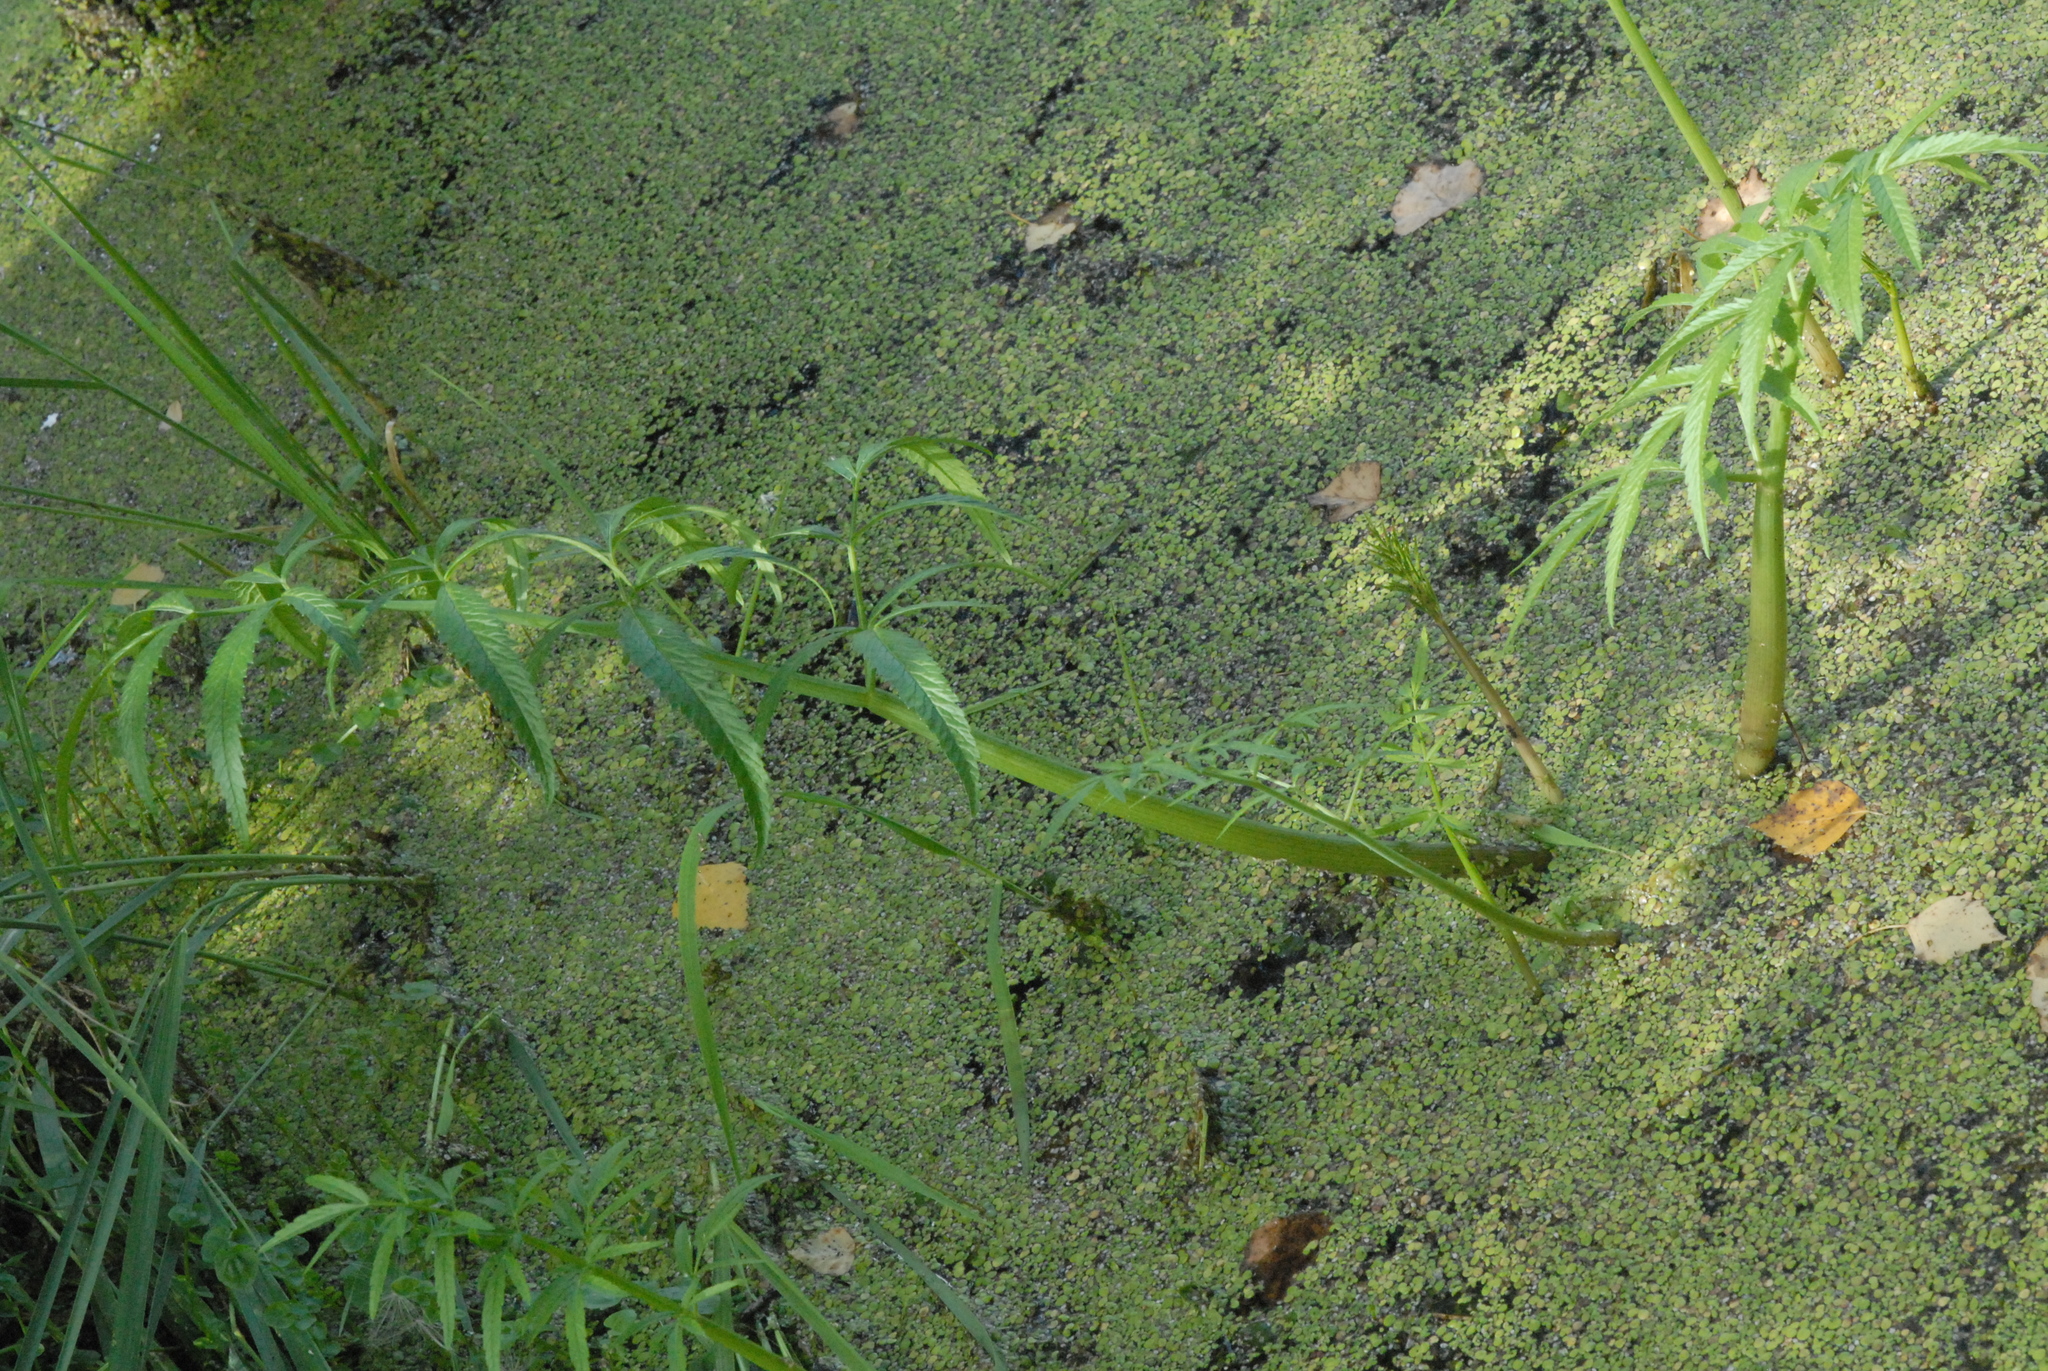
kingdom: Plantae
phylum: Tracheophyta
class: Magnoliopsida
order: Apiales
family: Apiaceae
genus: Cicuta
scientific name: Cicuta virosa
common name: Cowbane
